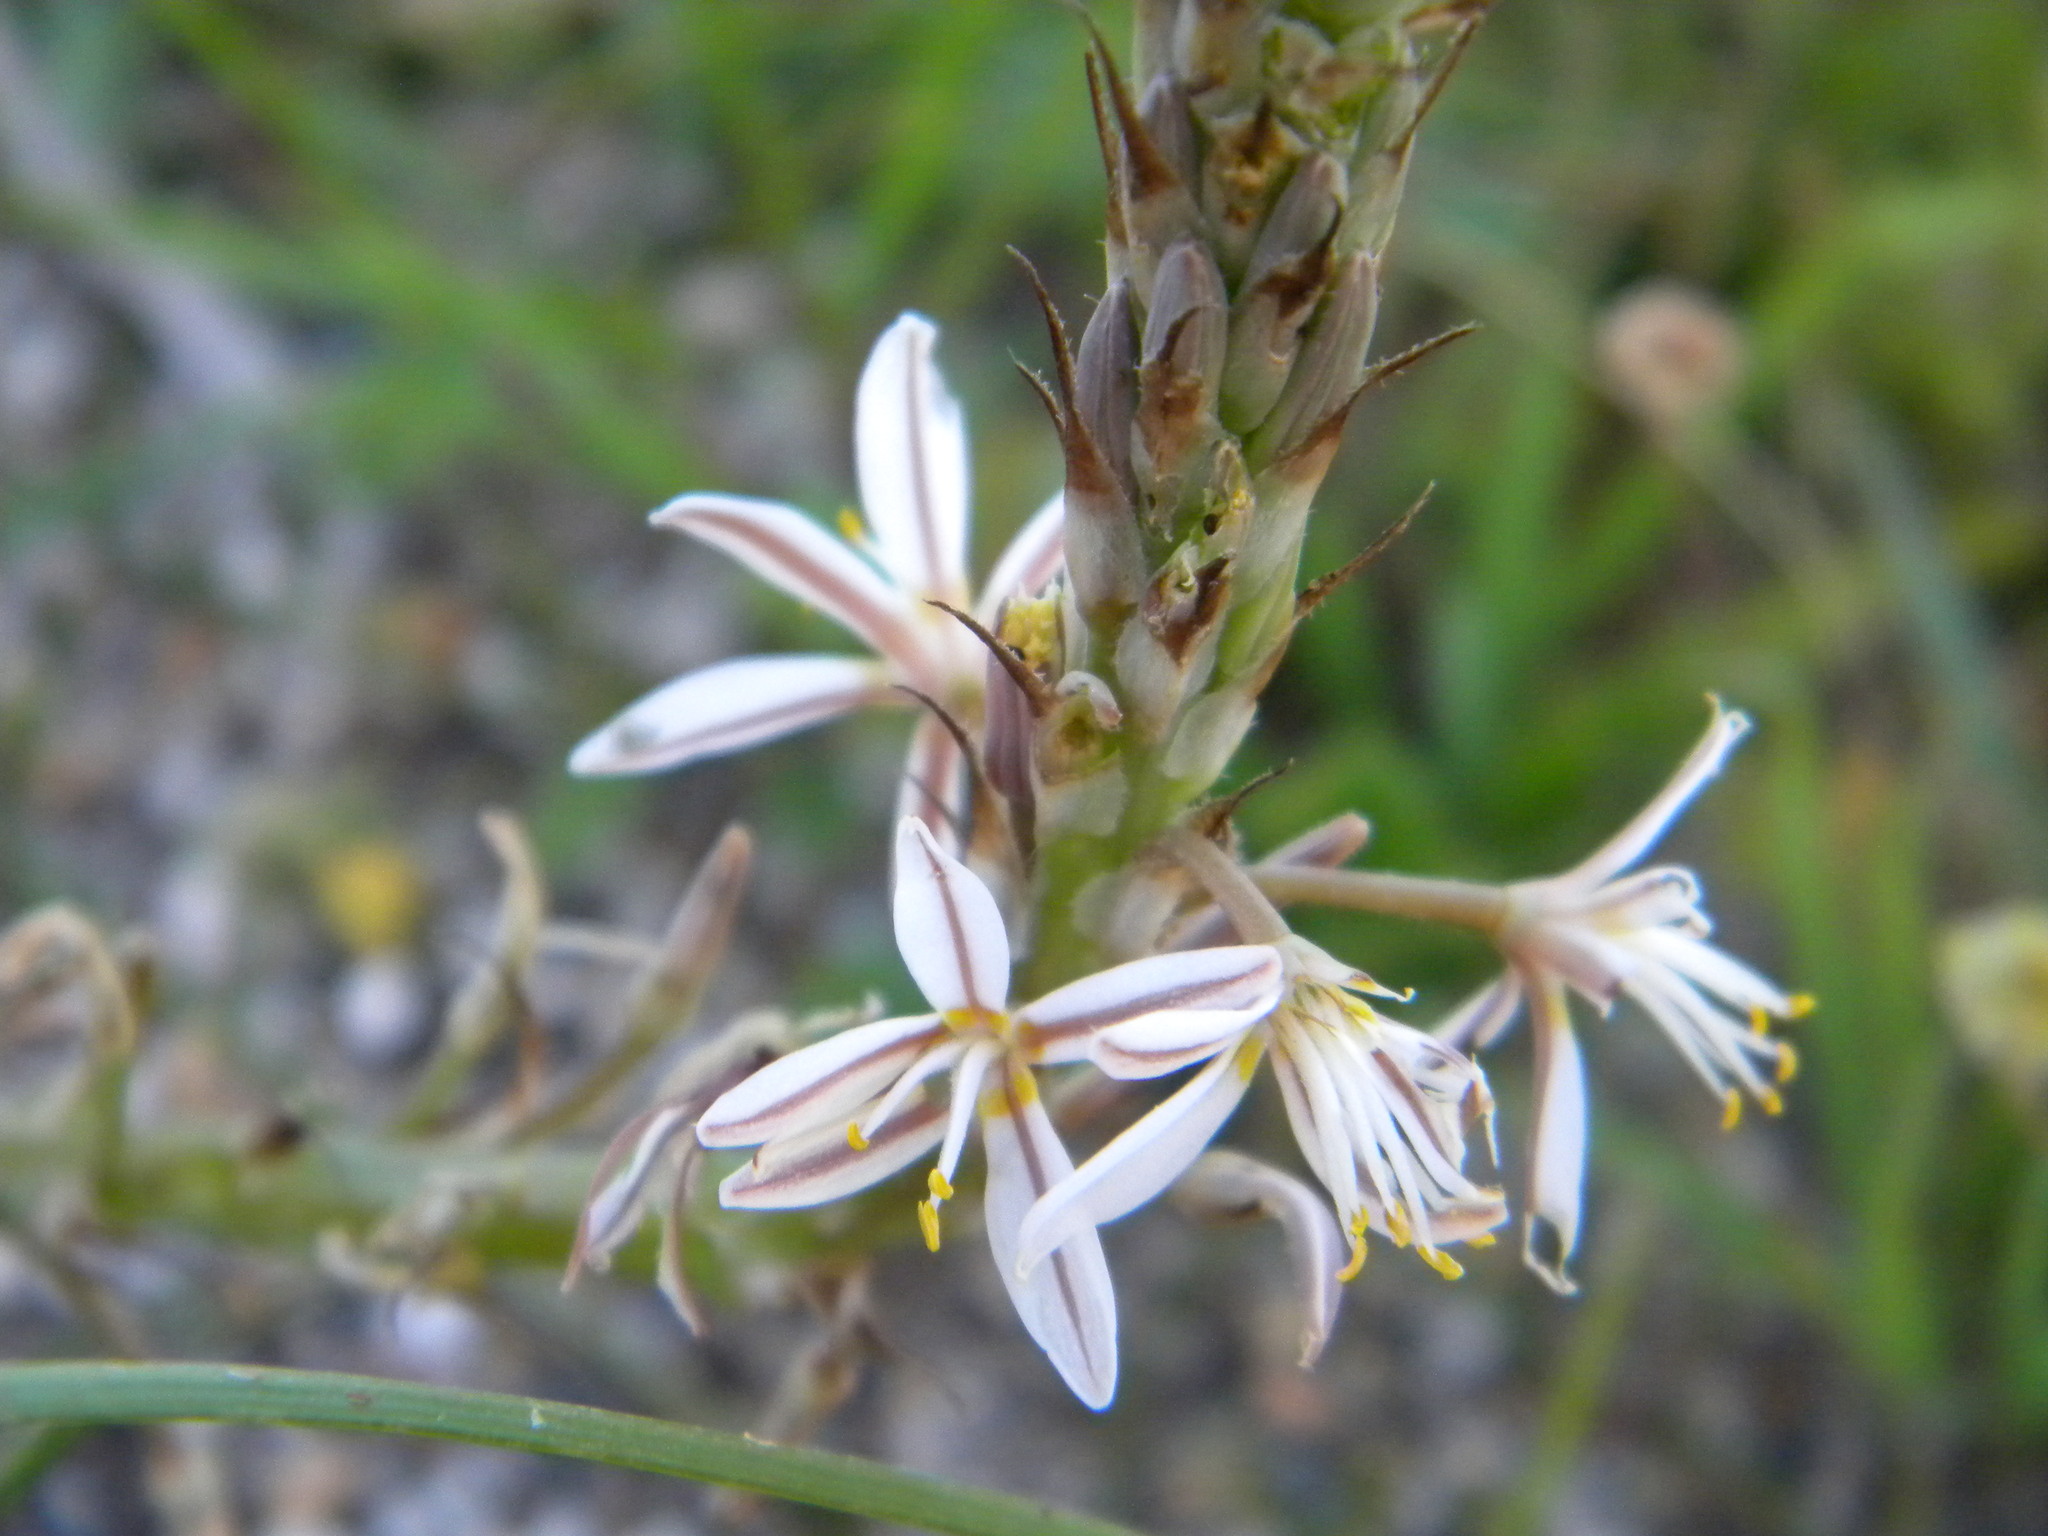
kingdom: Plantae
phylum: Tracheophyta
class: Liliopsida
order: Asparagales
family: Asphodelaceae
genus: Trachyandra
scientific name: Trachyandra ciliata
